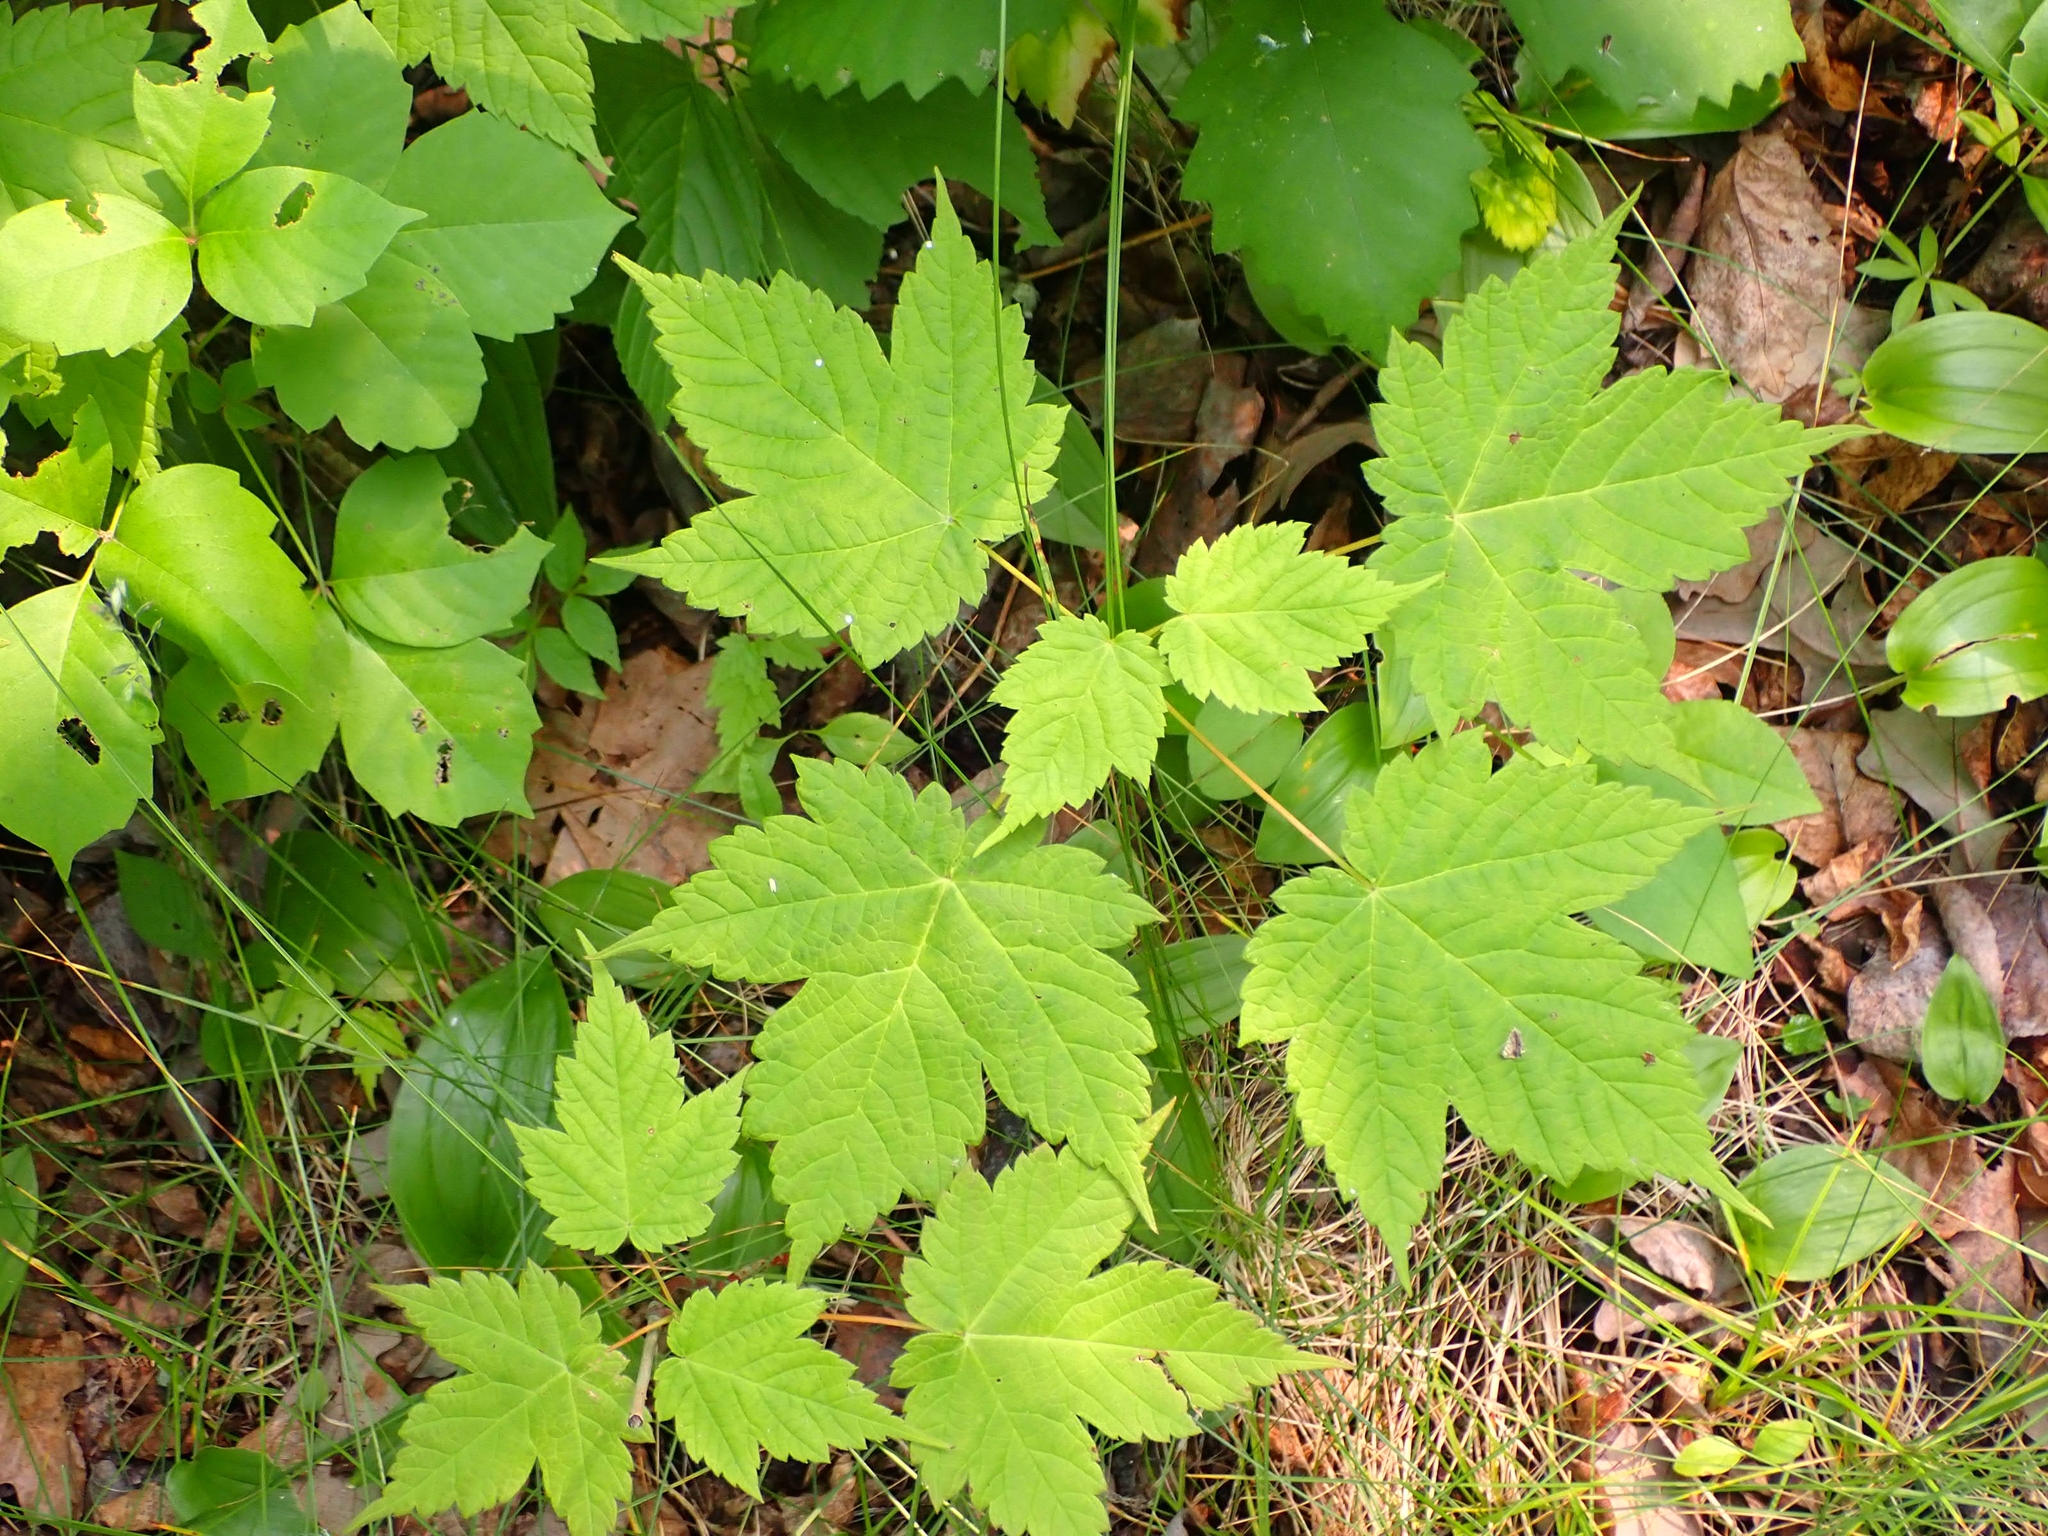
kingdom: Plantae
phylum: Tracheophyta
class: Magnoliopsida
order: Sapindales
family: Sapindaceae
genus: Acer
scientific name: Acer spicatum
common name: Mountain maple
